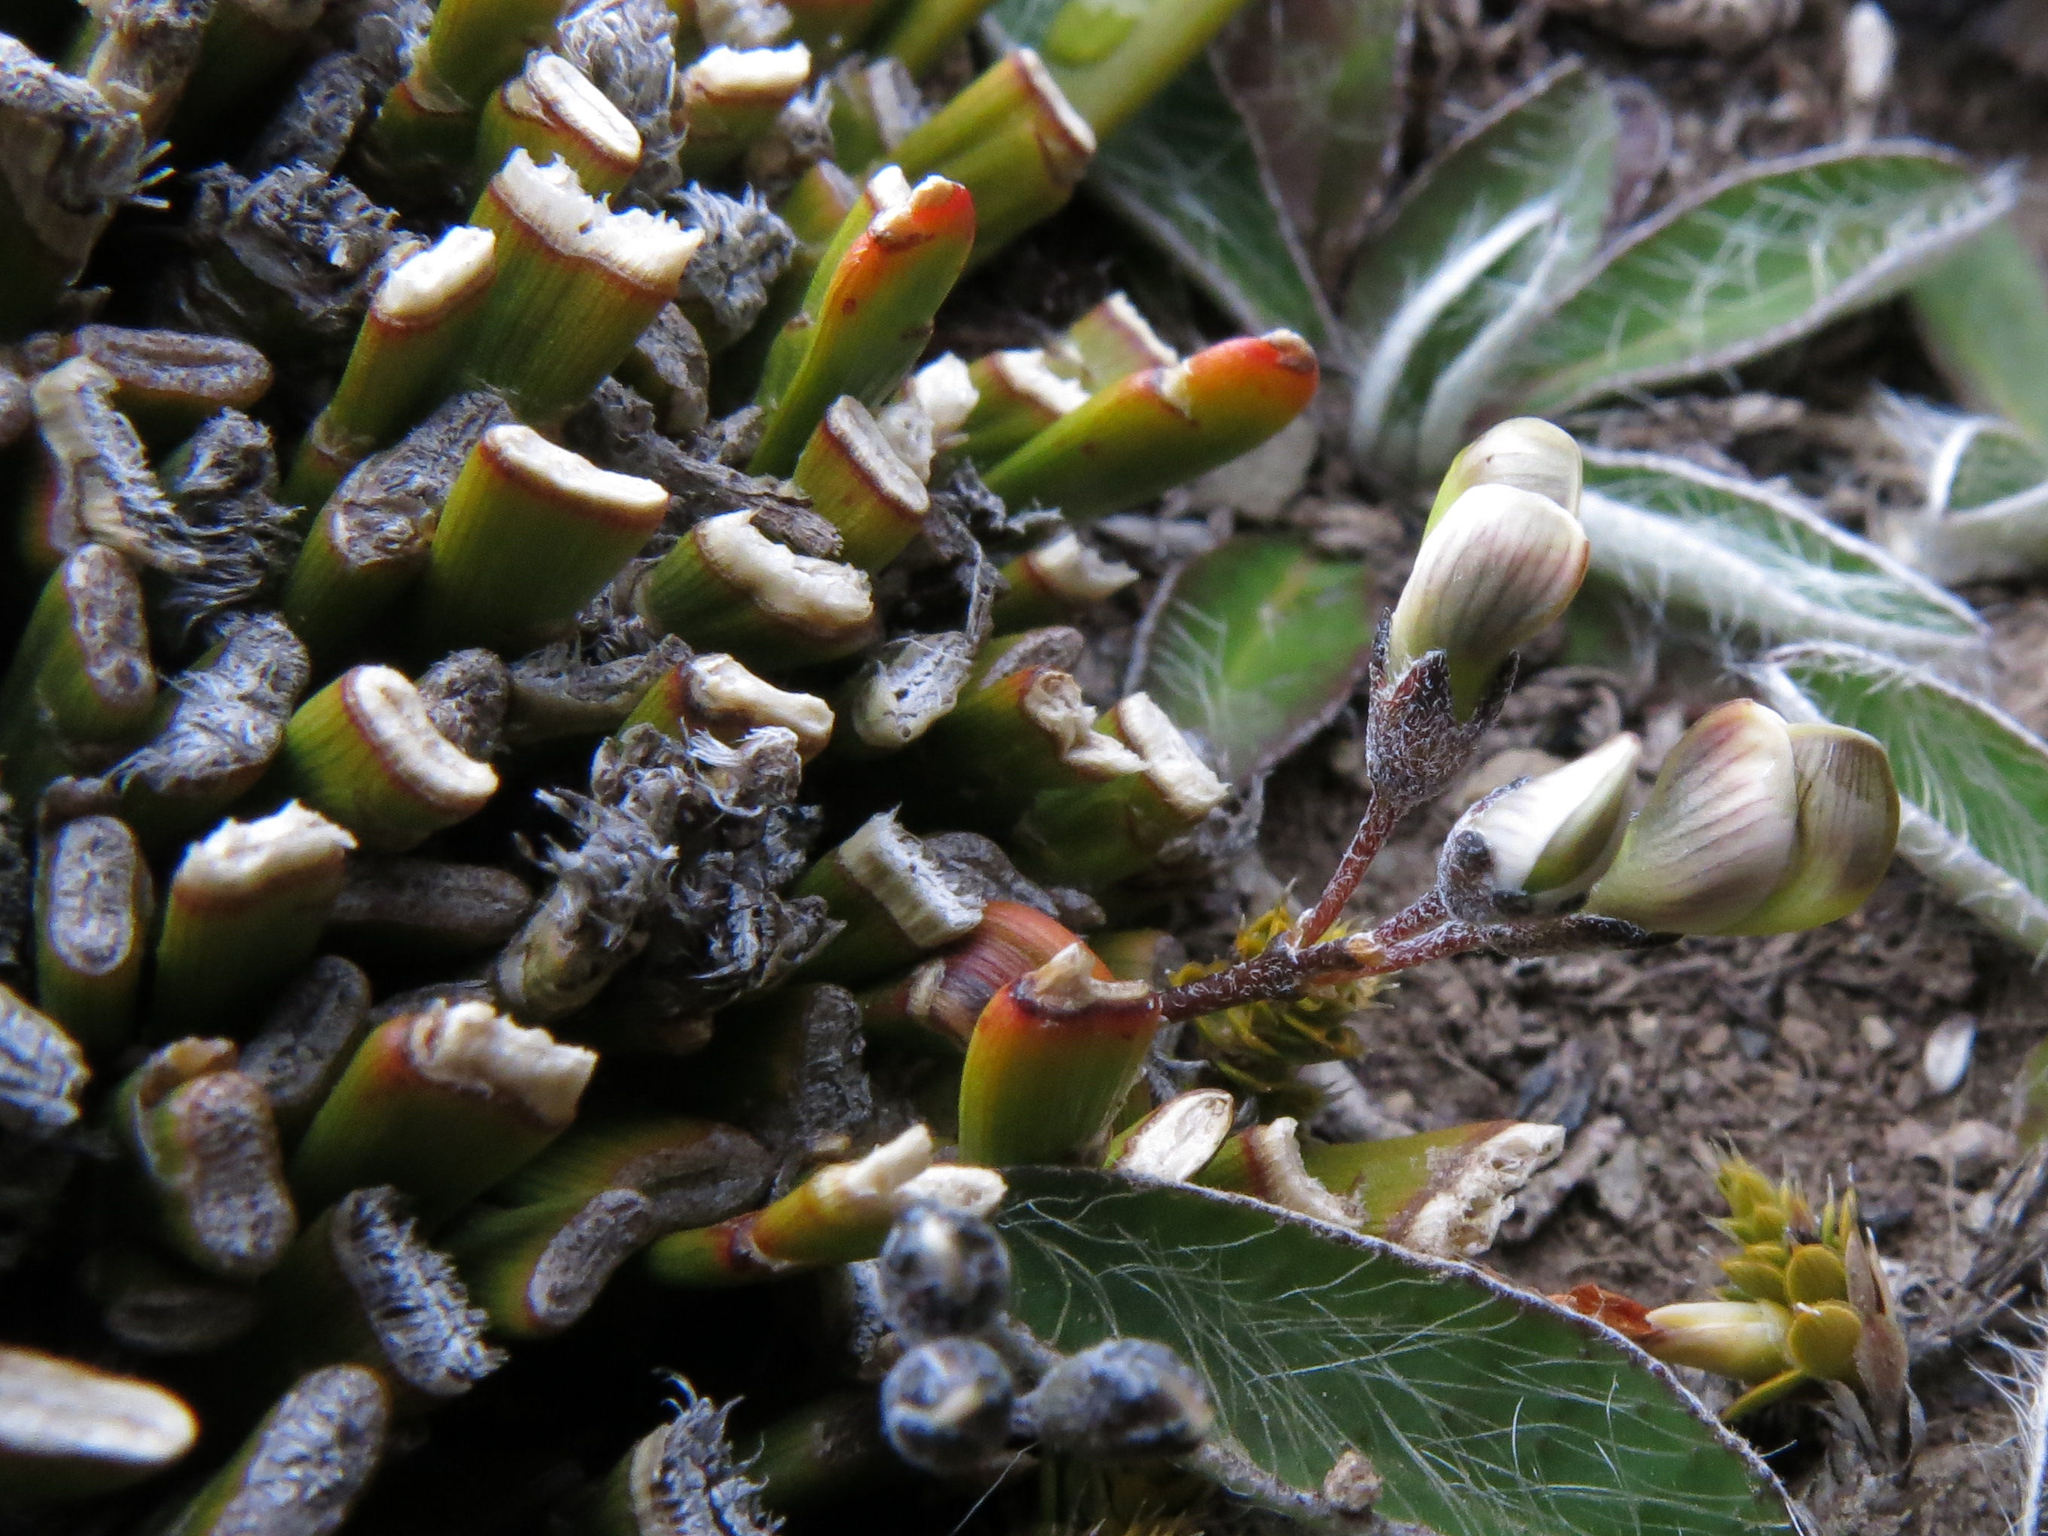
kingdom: Plantae
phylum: Tracheophyta
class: Magnoliopsida
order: Fabales
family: Fabaceae
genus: Carmichaelia
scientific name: Carmichaelia monroi
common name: Stout dwarf broom
